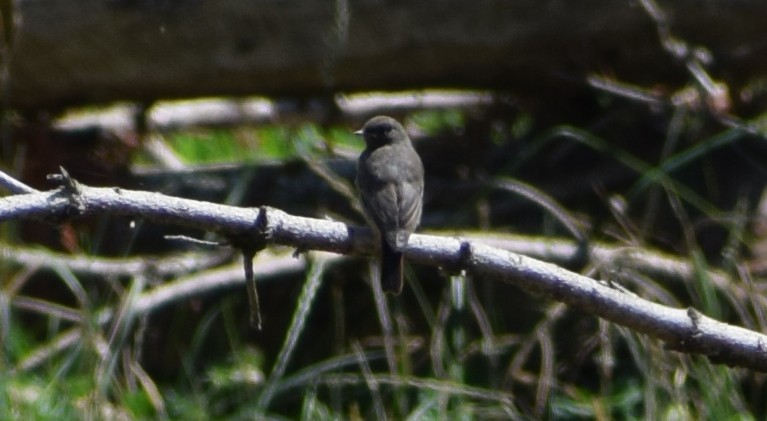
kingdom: Animalia
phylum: Chordata
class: Aves
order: Passeriformes
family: Muscicapidae
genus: Phoenicurus
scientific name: Phoenicurus ochruros
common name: Black redstart
